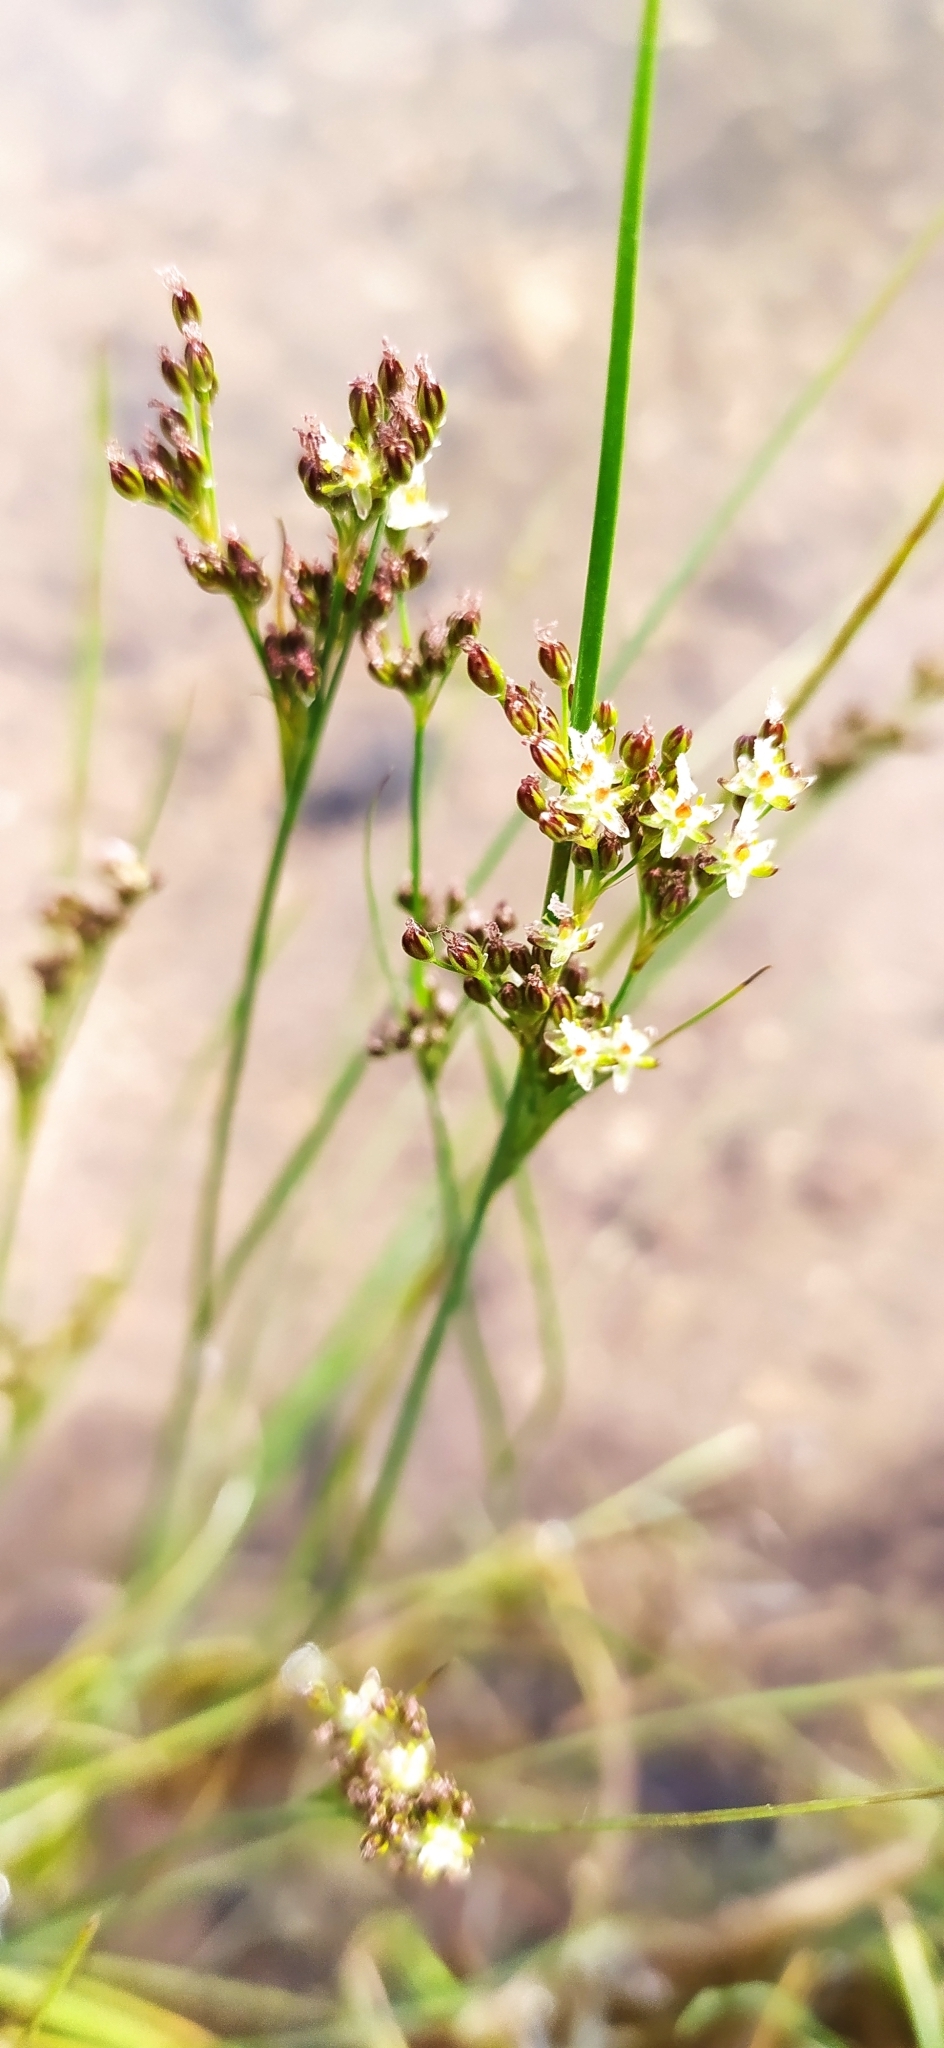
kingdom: Plantae
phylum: Tracheophyta
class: Liliopsida
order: Poales
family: Juncaceae
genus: Juncus
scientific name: Juncus compressus
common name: Round-fruited rush
